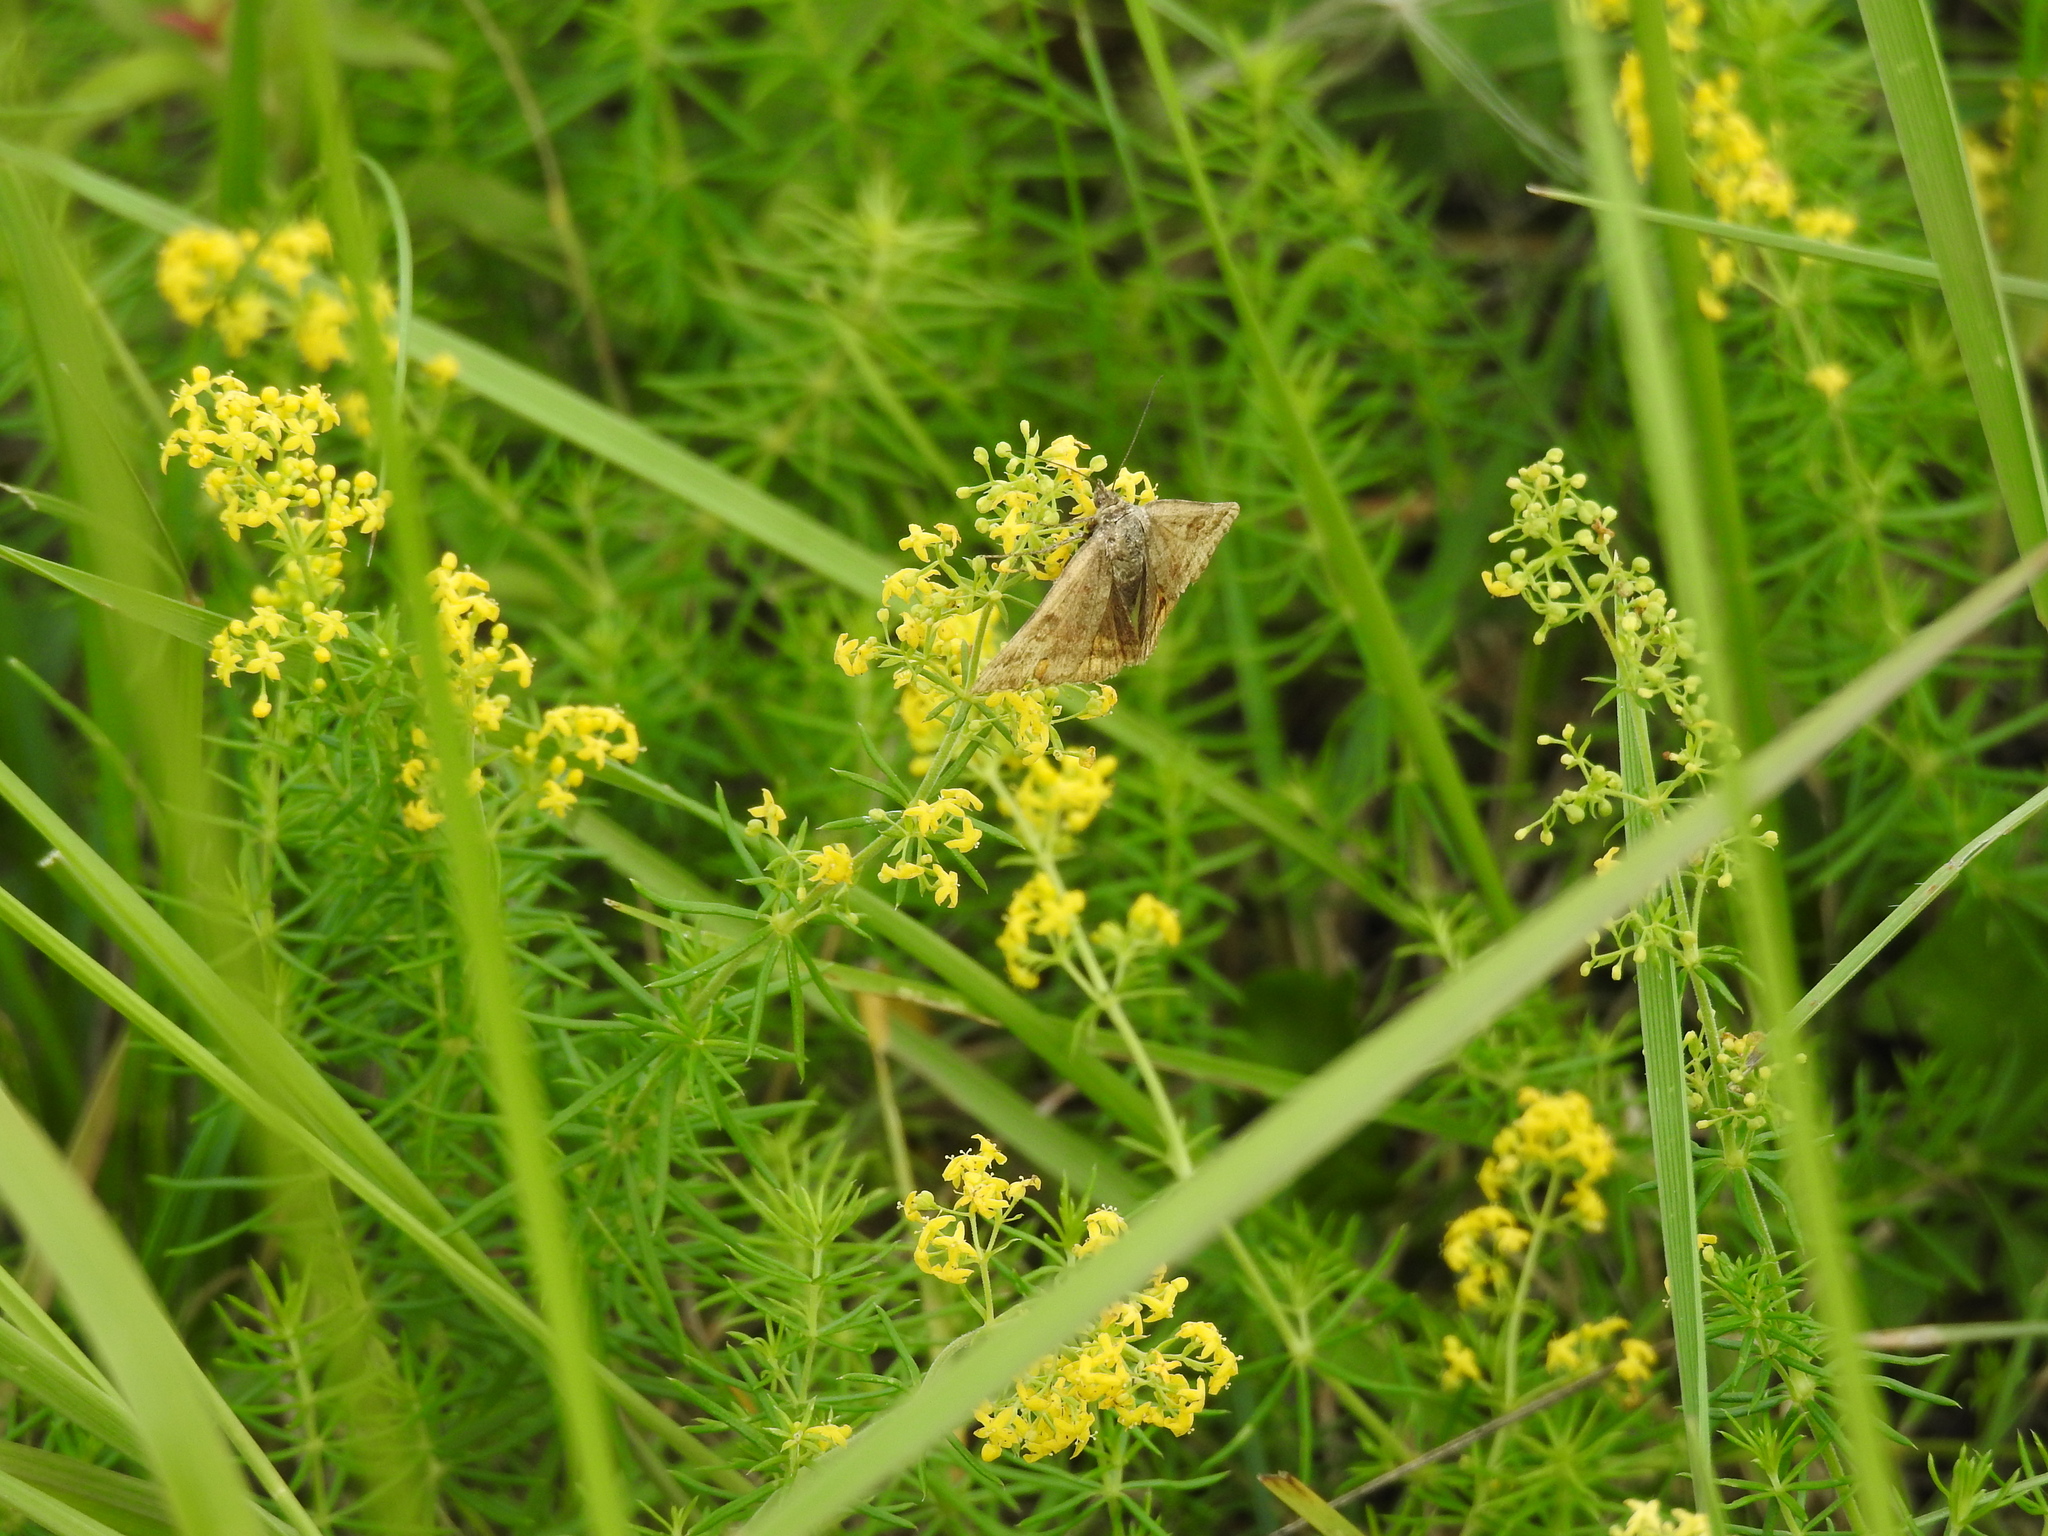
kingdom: Animalia
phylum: Arthropoda
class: Insecta
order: Lepidoptera
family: Erebidae
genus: Euclidia
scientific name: Euclidia glyphica
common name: Burnet companion
